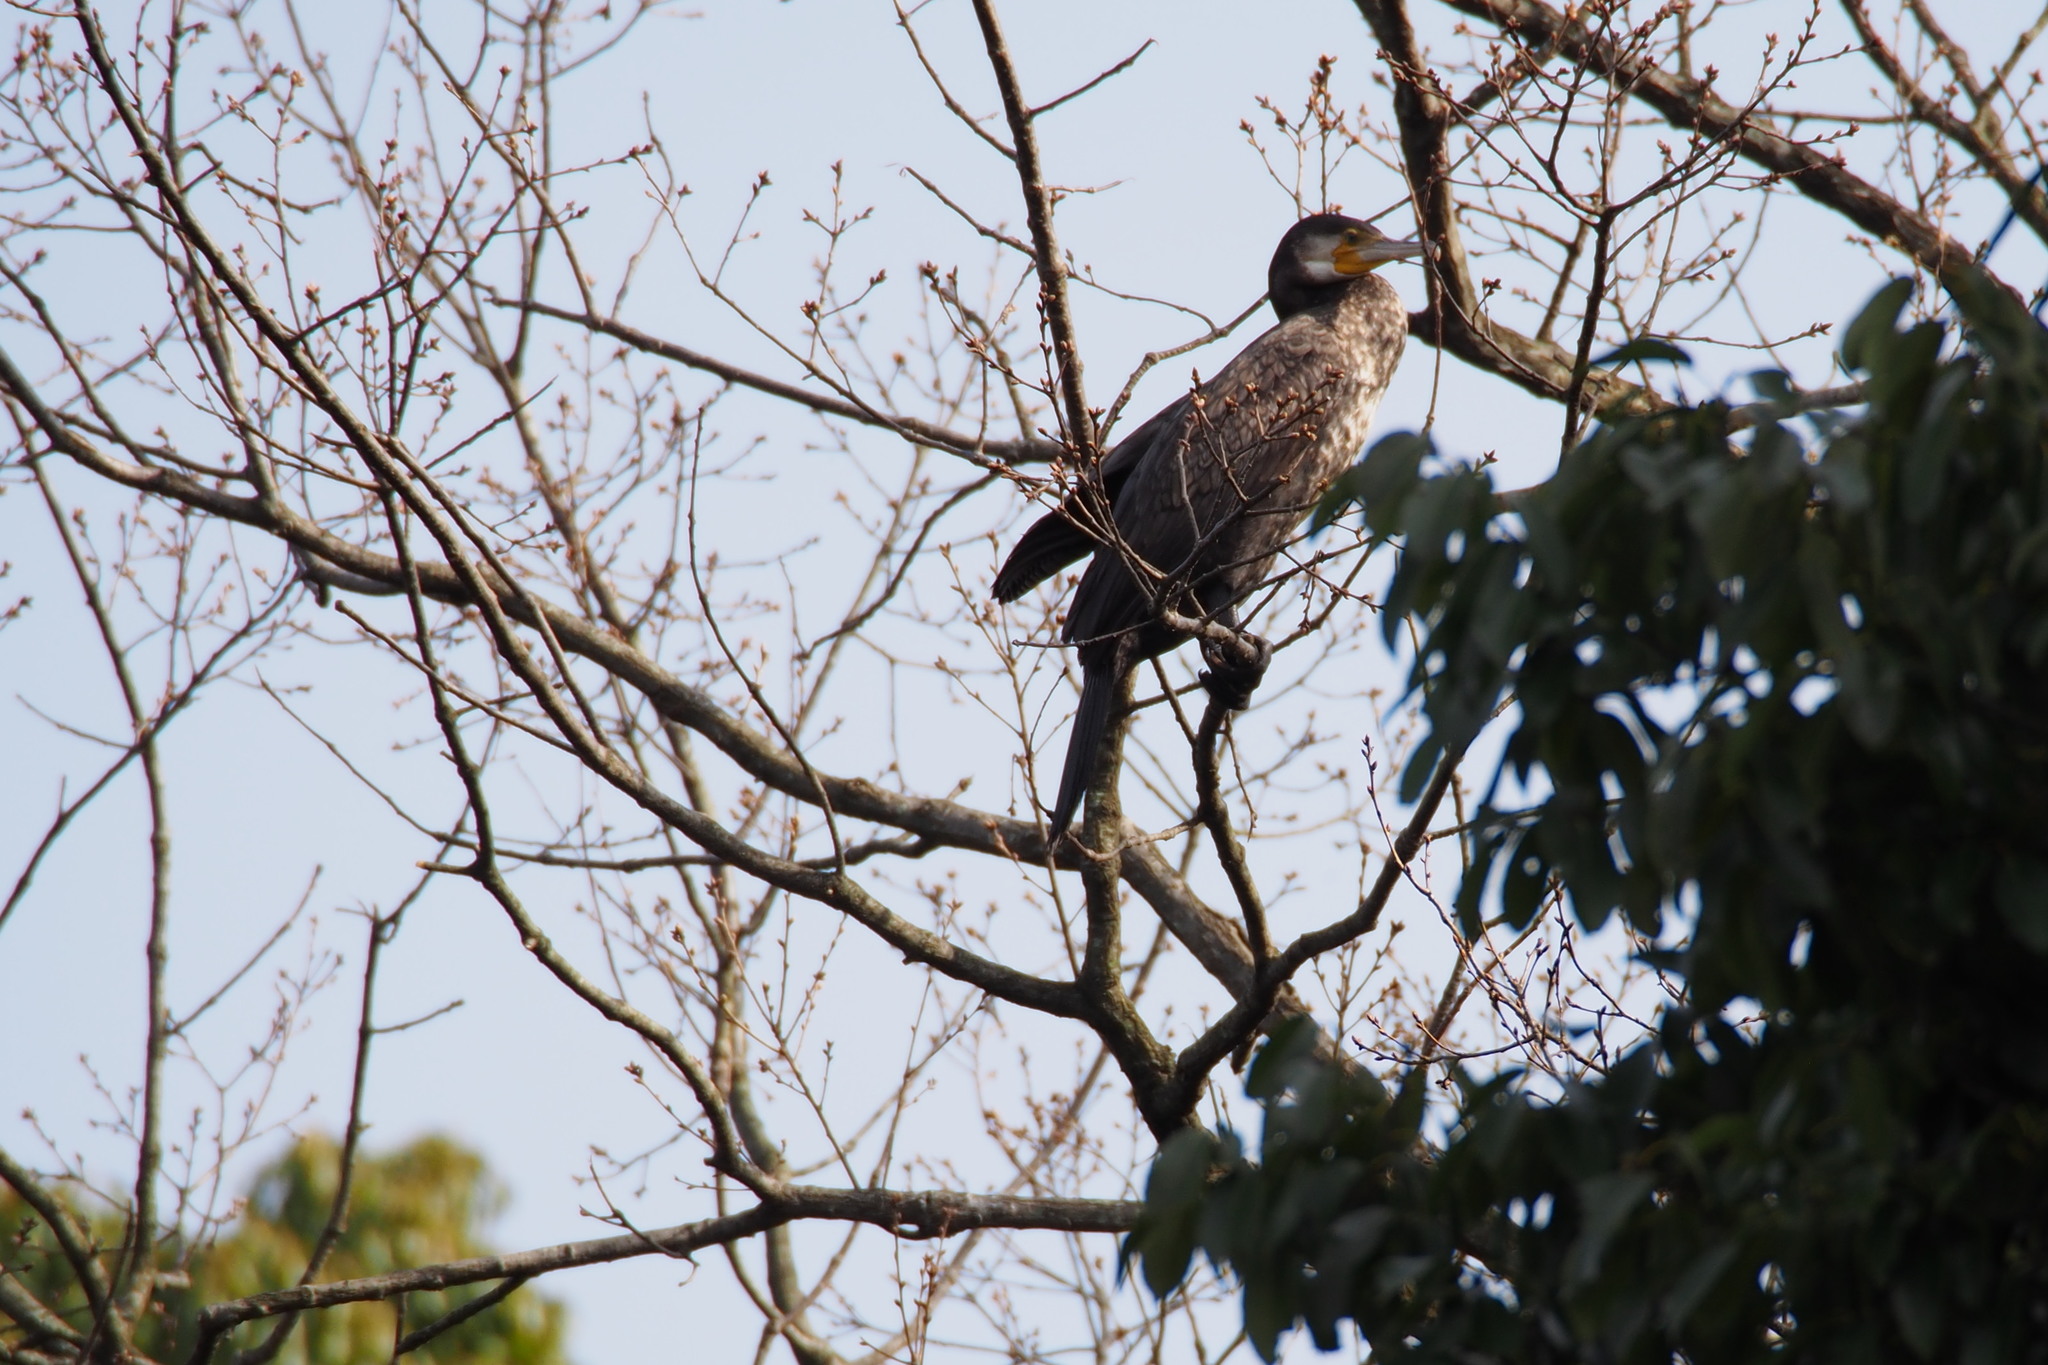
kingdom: Animalia
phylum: Chordata
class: Aves
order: Suliformes
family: Phalacrocoracidae
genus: Phalacrocorax
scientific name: Phalacrocorax carbo
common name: Great cormorant
